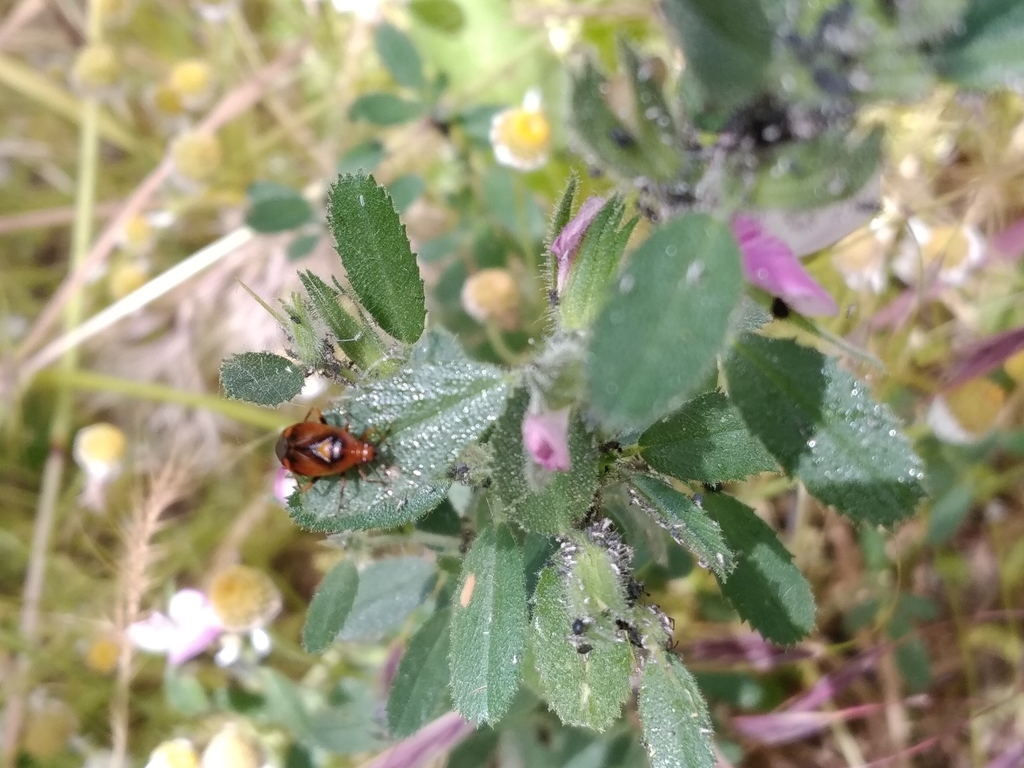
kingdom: Animalia
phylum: Arthropoda
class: Insecta
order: Hemiptera
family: Miridae
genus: Deraeocoris
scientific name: Deraeocoris ruber
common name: Plant bug
